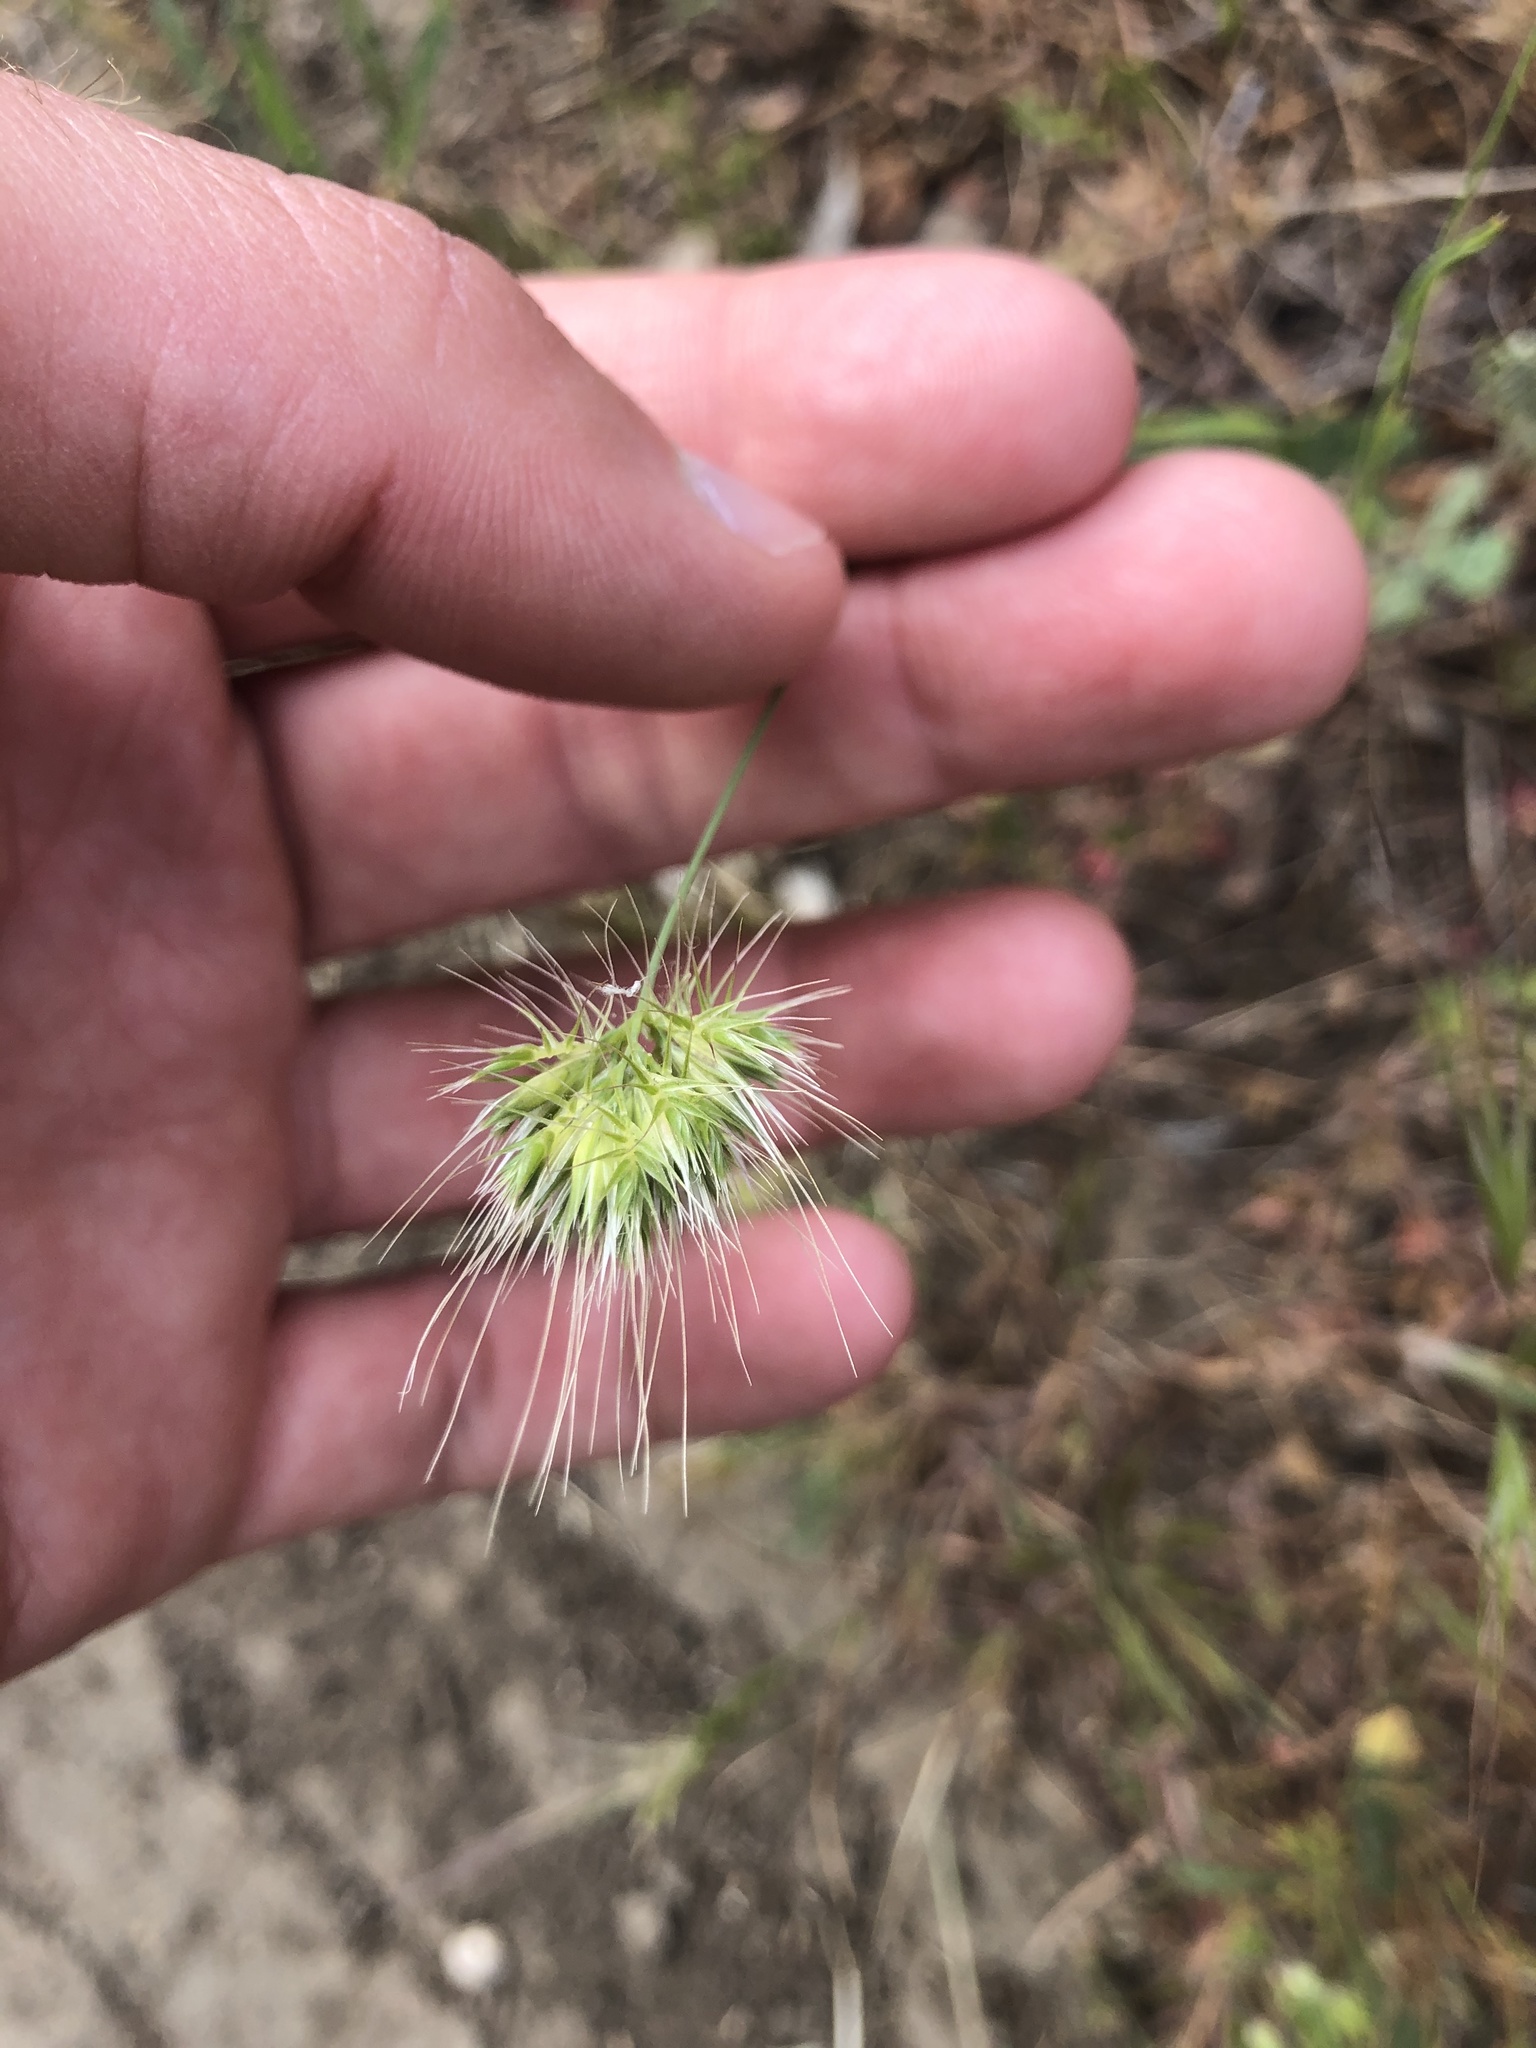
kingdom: Plantae
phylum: Tracheophyta
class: Liliopsida
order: Poales
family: Poaceae
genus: Cynosurus
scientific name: Cynosurus echinatus
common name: Rough dog's-tail
